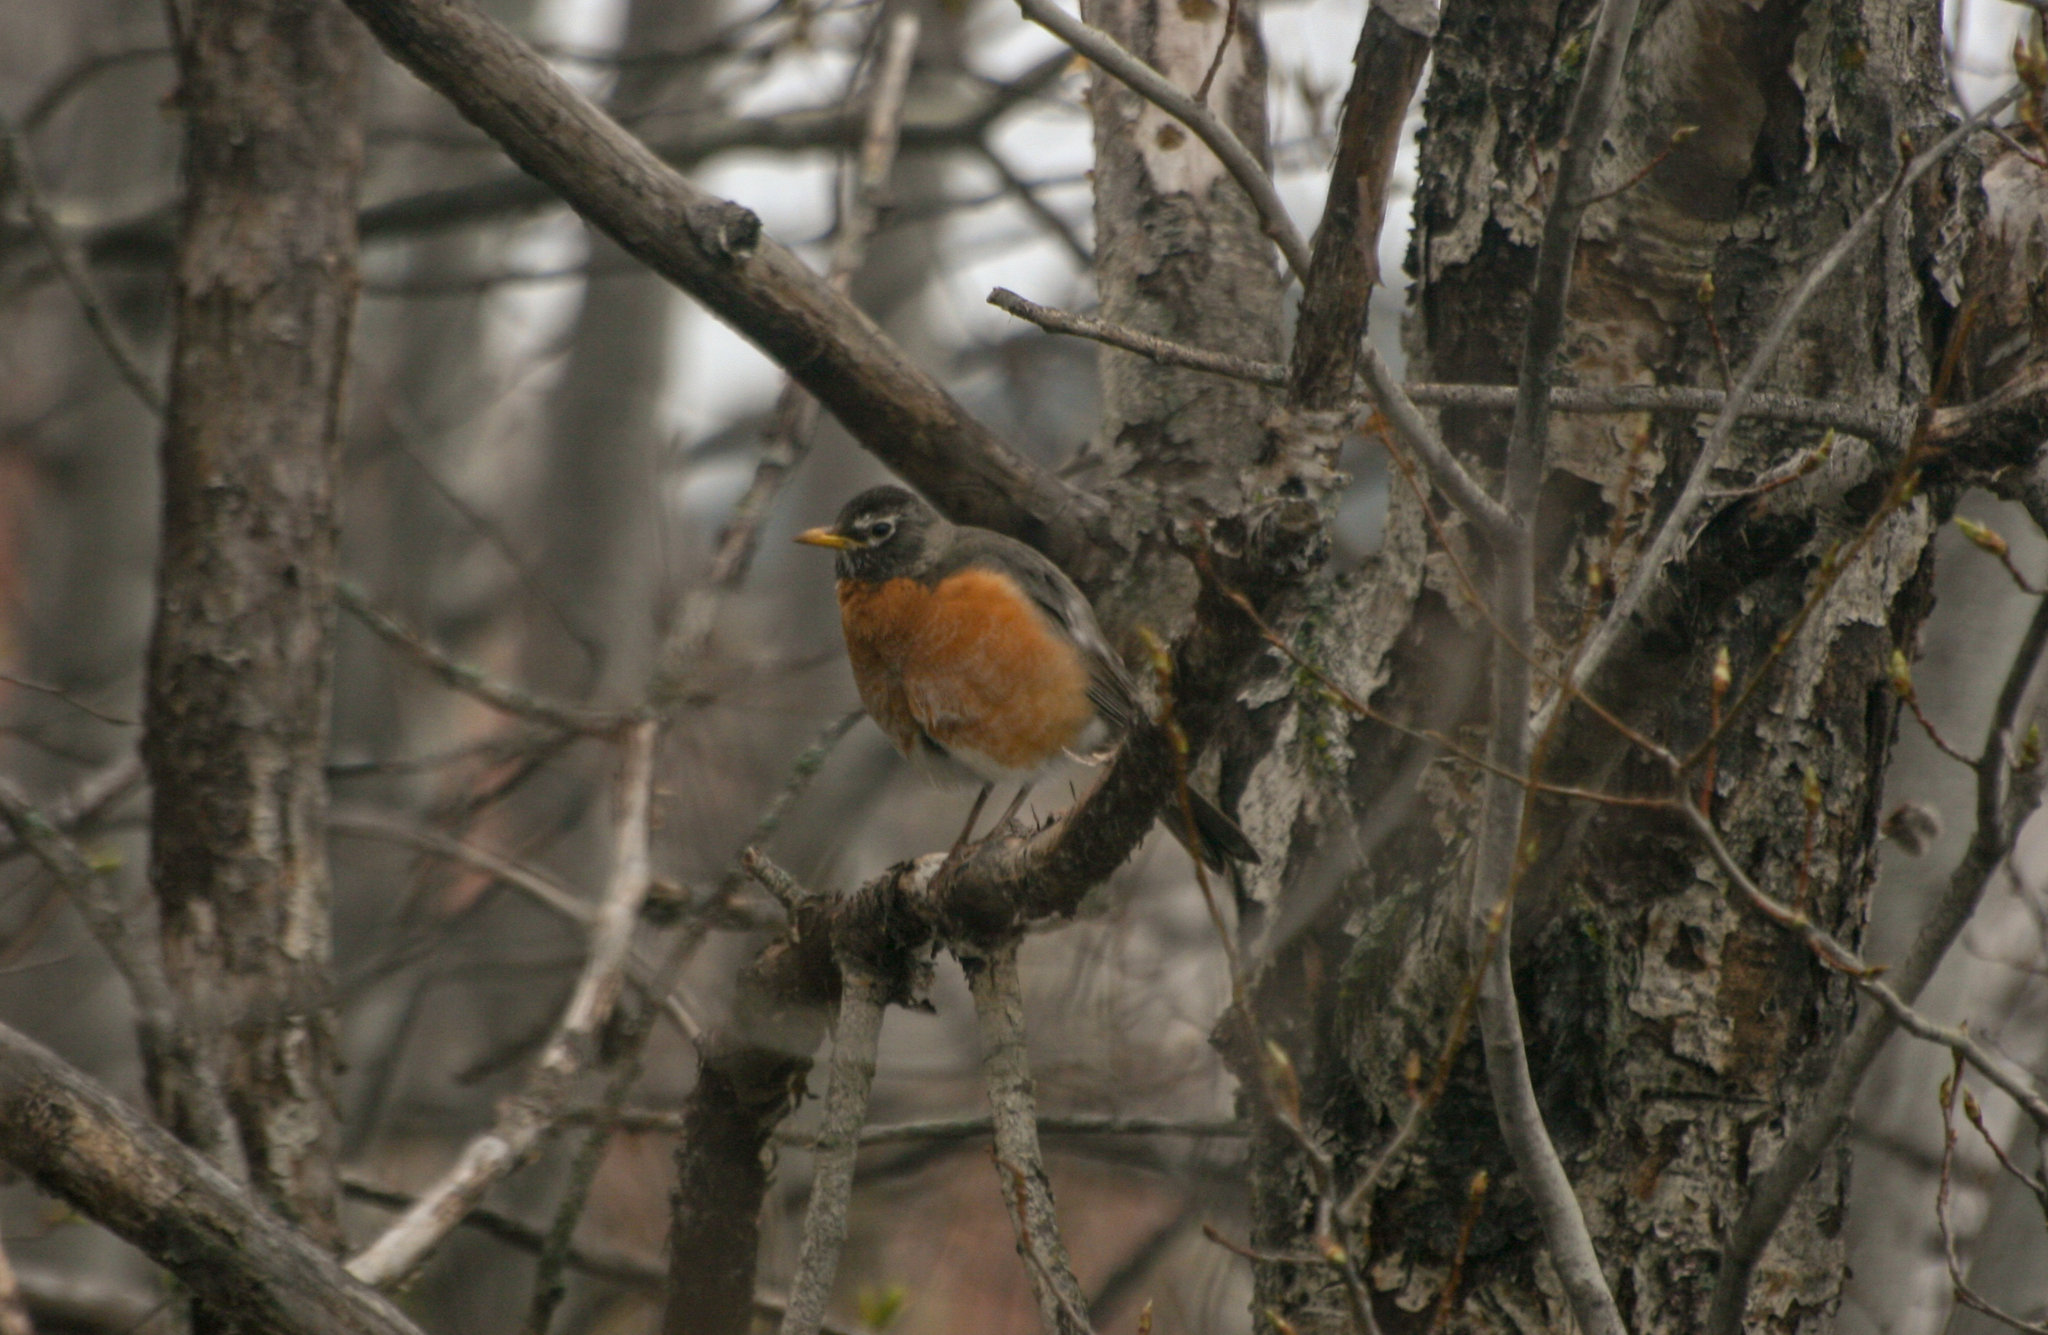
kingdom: Animalia
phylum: Chordata
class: Aves
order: Passeriformes
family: Turdidae
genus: Turdus
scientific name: Turdus migratorius
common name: American robin
